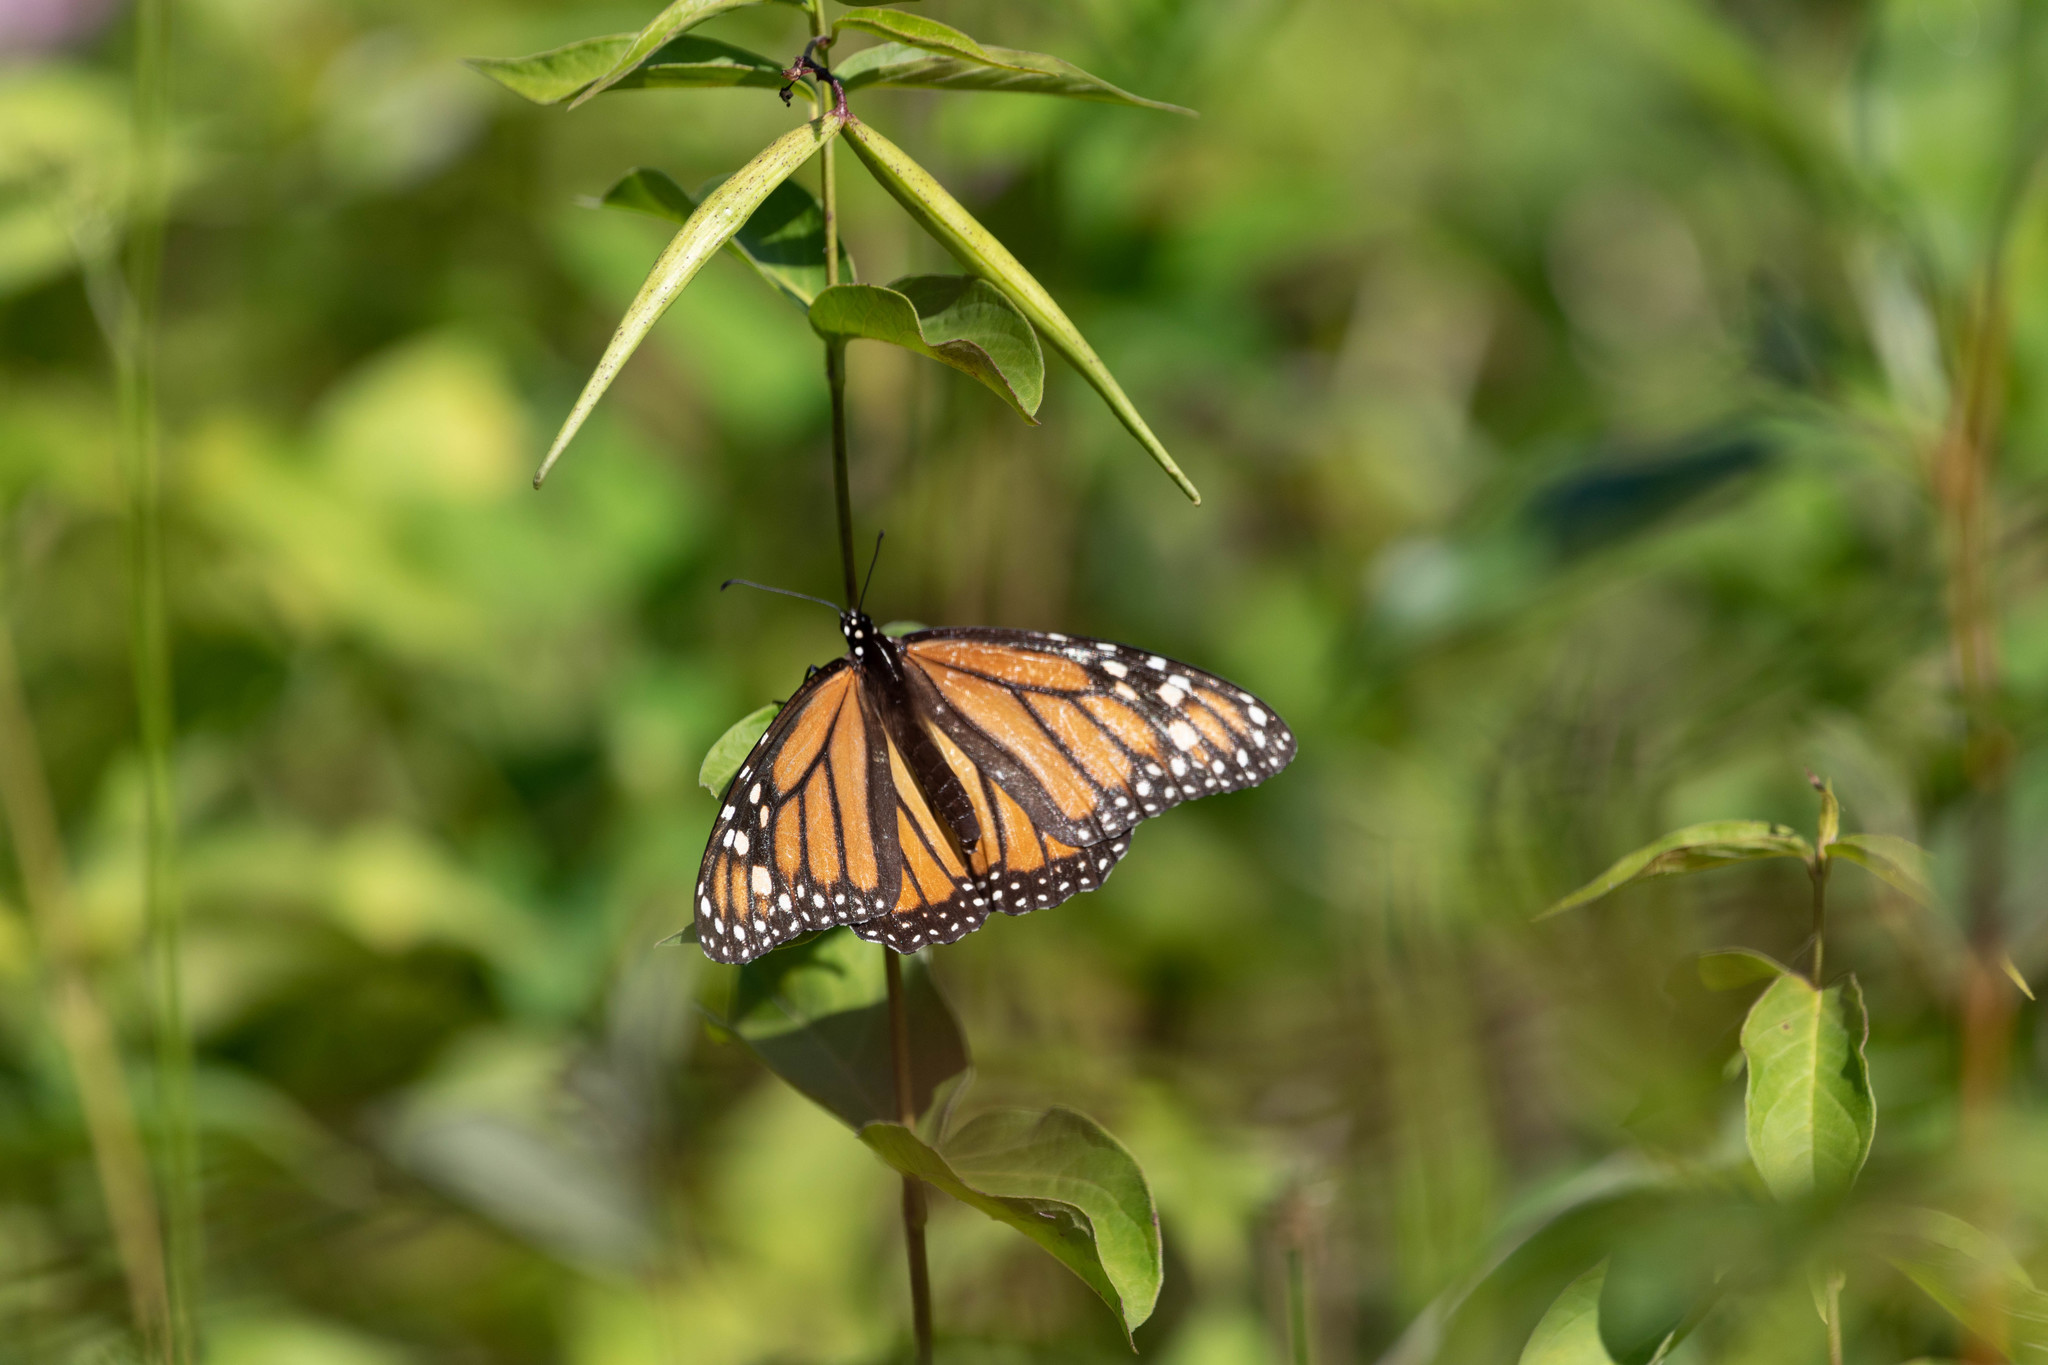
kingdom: Animalia
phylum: Arthropoda
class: Insecta
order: Lepidoptera
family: Nymphalidae
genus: Danaus
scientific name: Danaus plexippus
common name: Monarch
